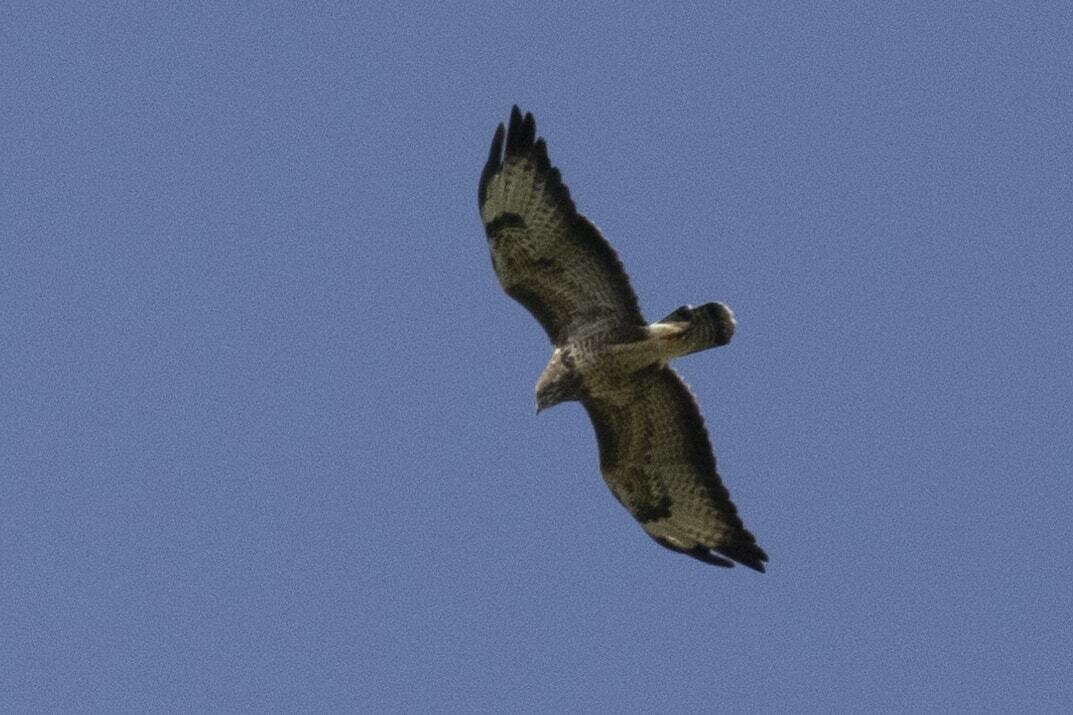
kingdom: Animalia
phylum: Chordata
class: Aves
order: Accipitriformes
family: Accipitridae
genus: Buteo
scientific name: Buteo buteo
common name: Common buzzard
